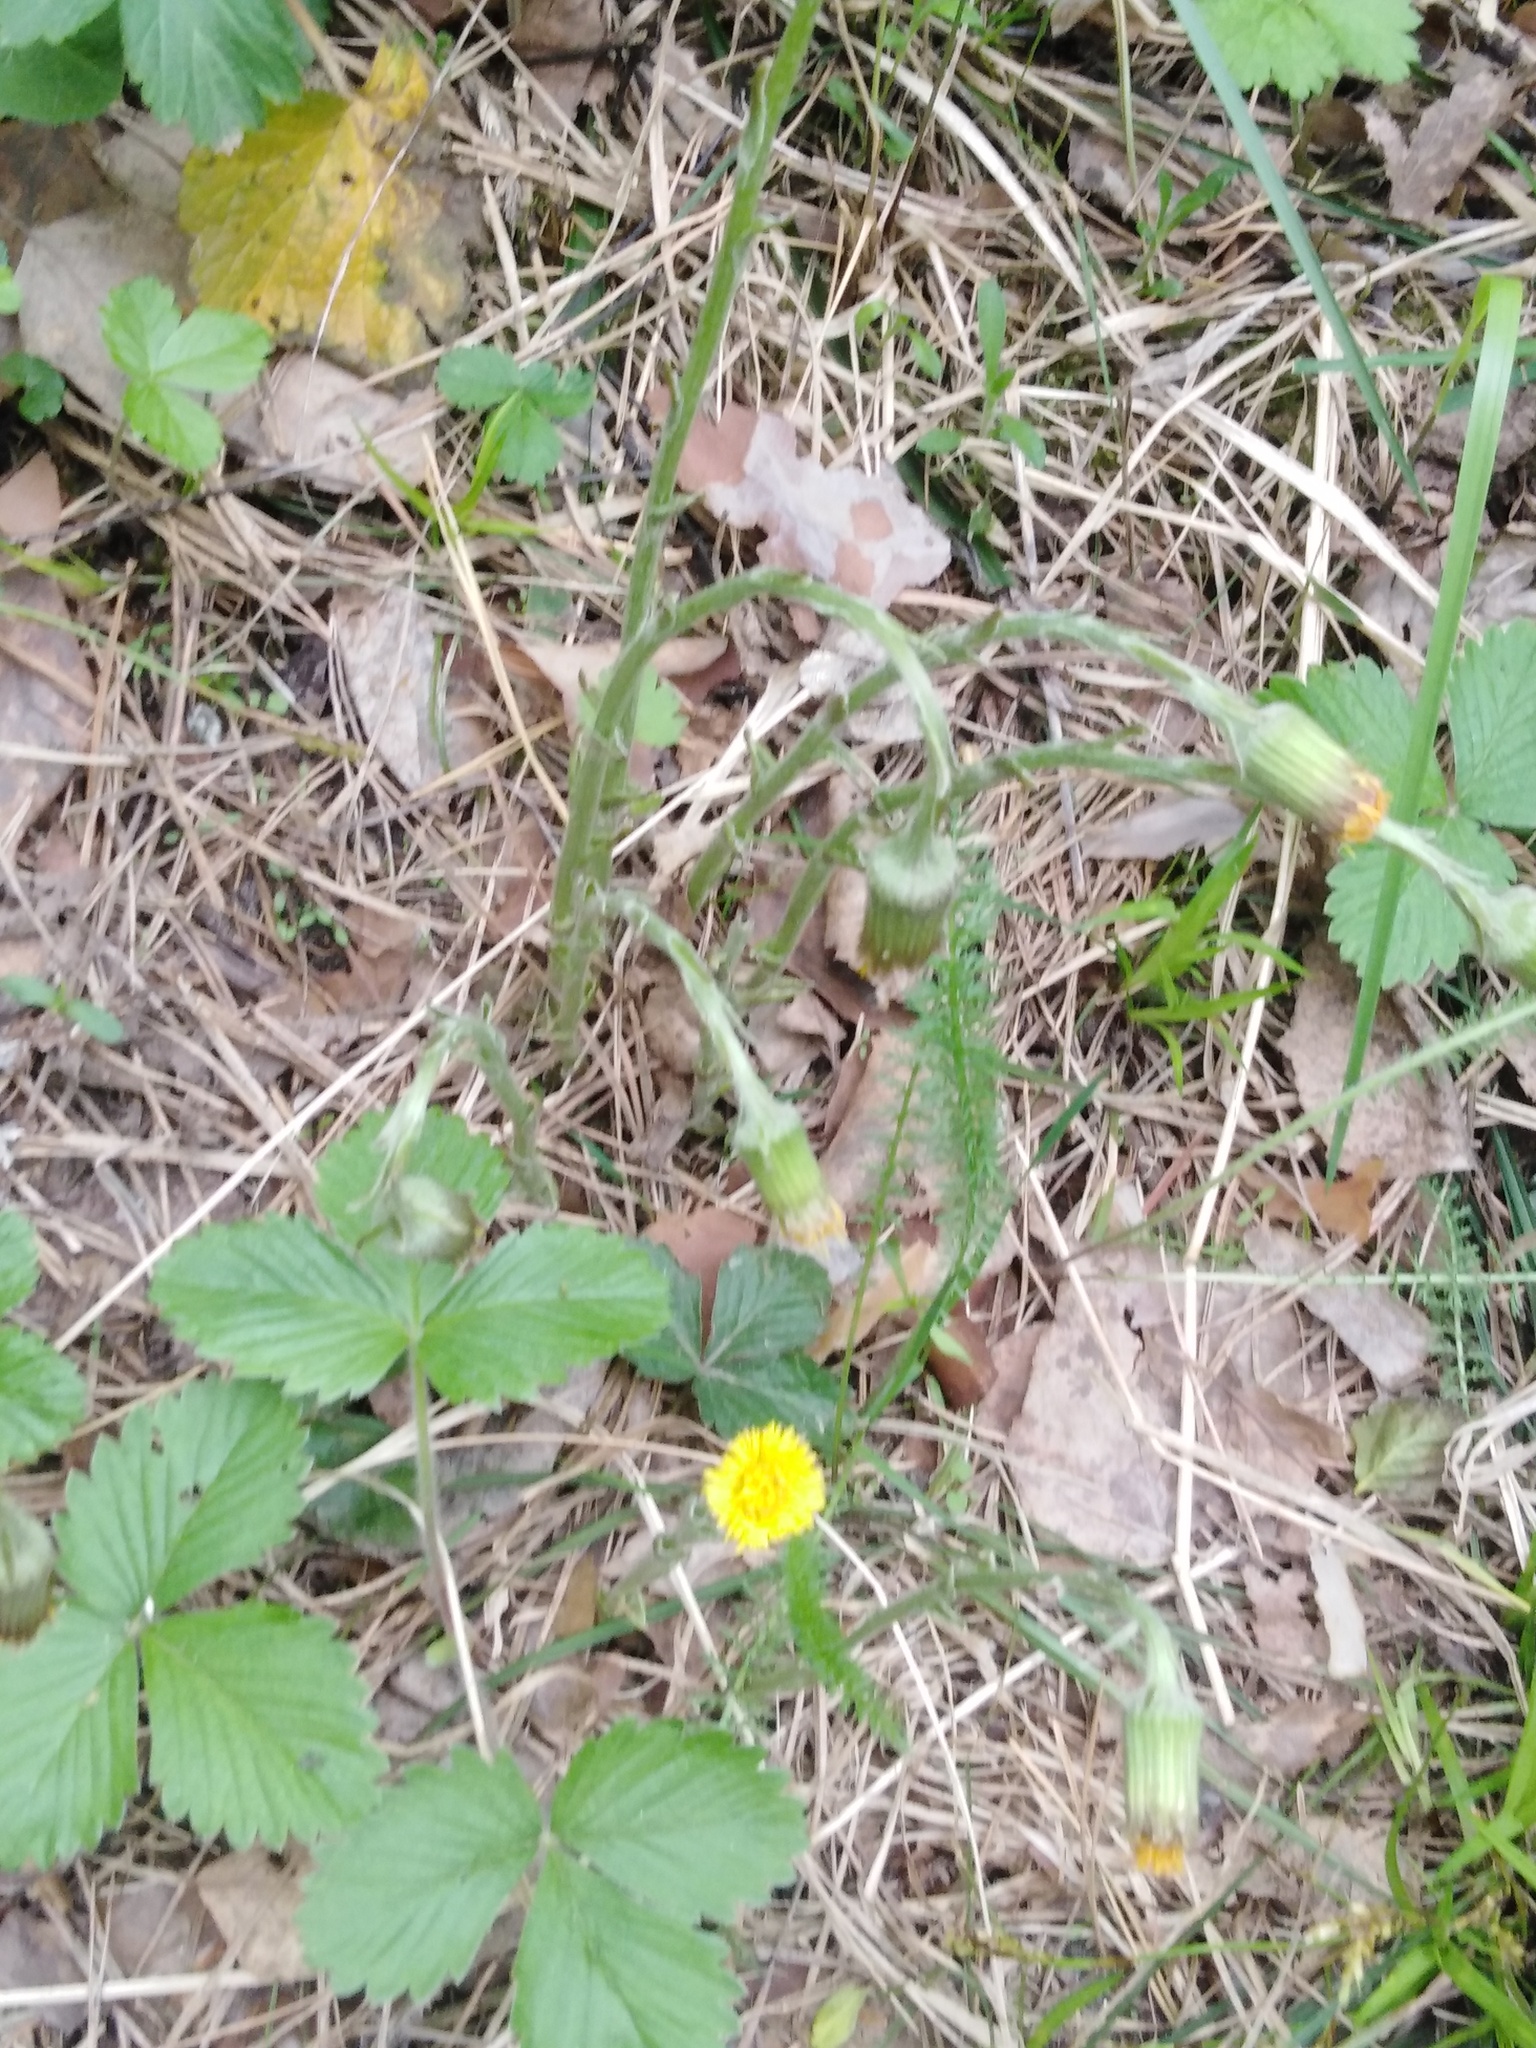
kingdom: Plantae
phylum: Tracheophyta
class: Magnoliopsida
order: Asterales
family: Asteraceae
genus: Tussilago
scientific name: Tussilago farfara
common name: Coltsfoot
